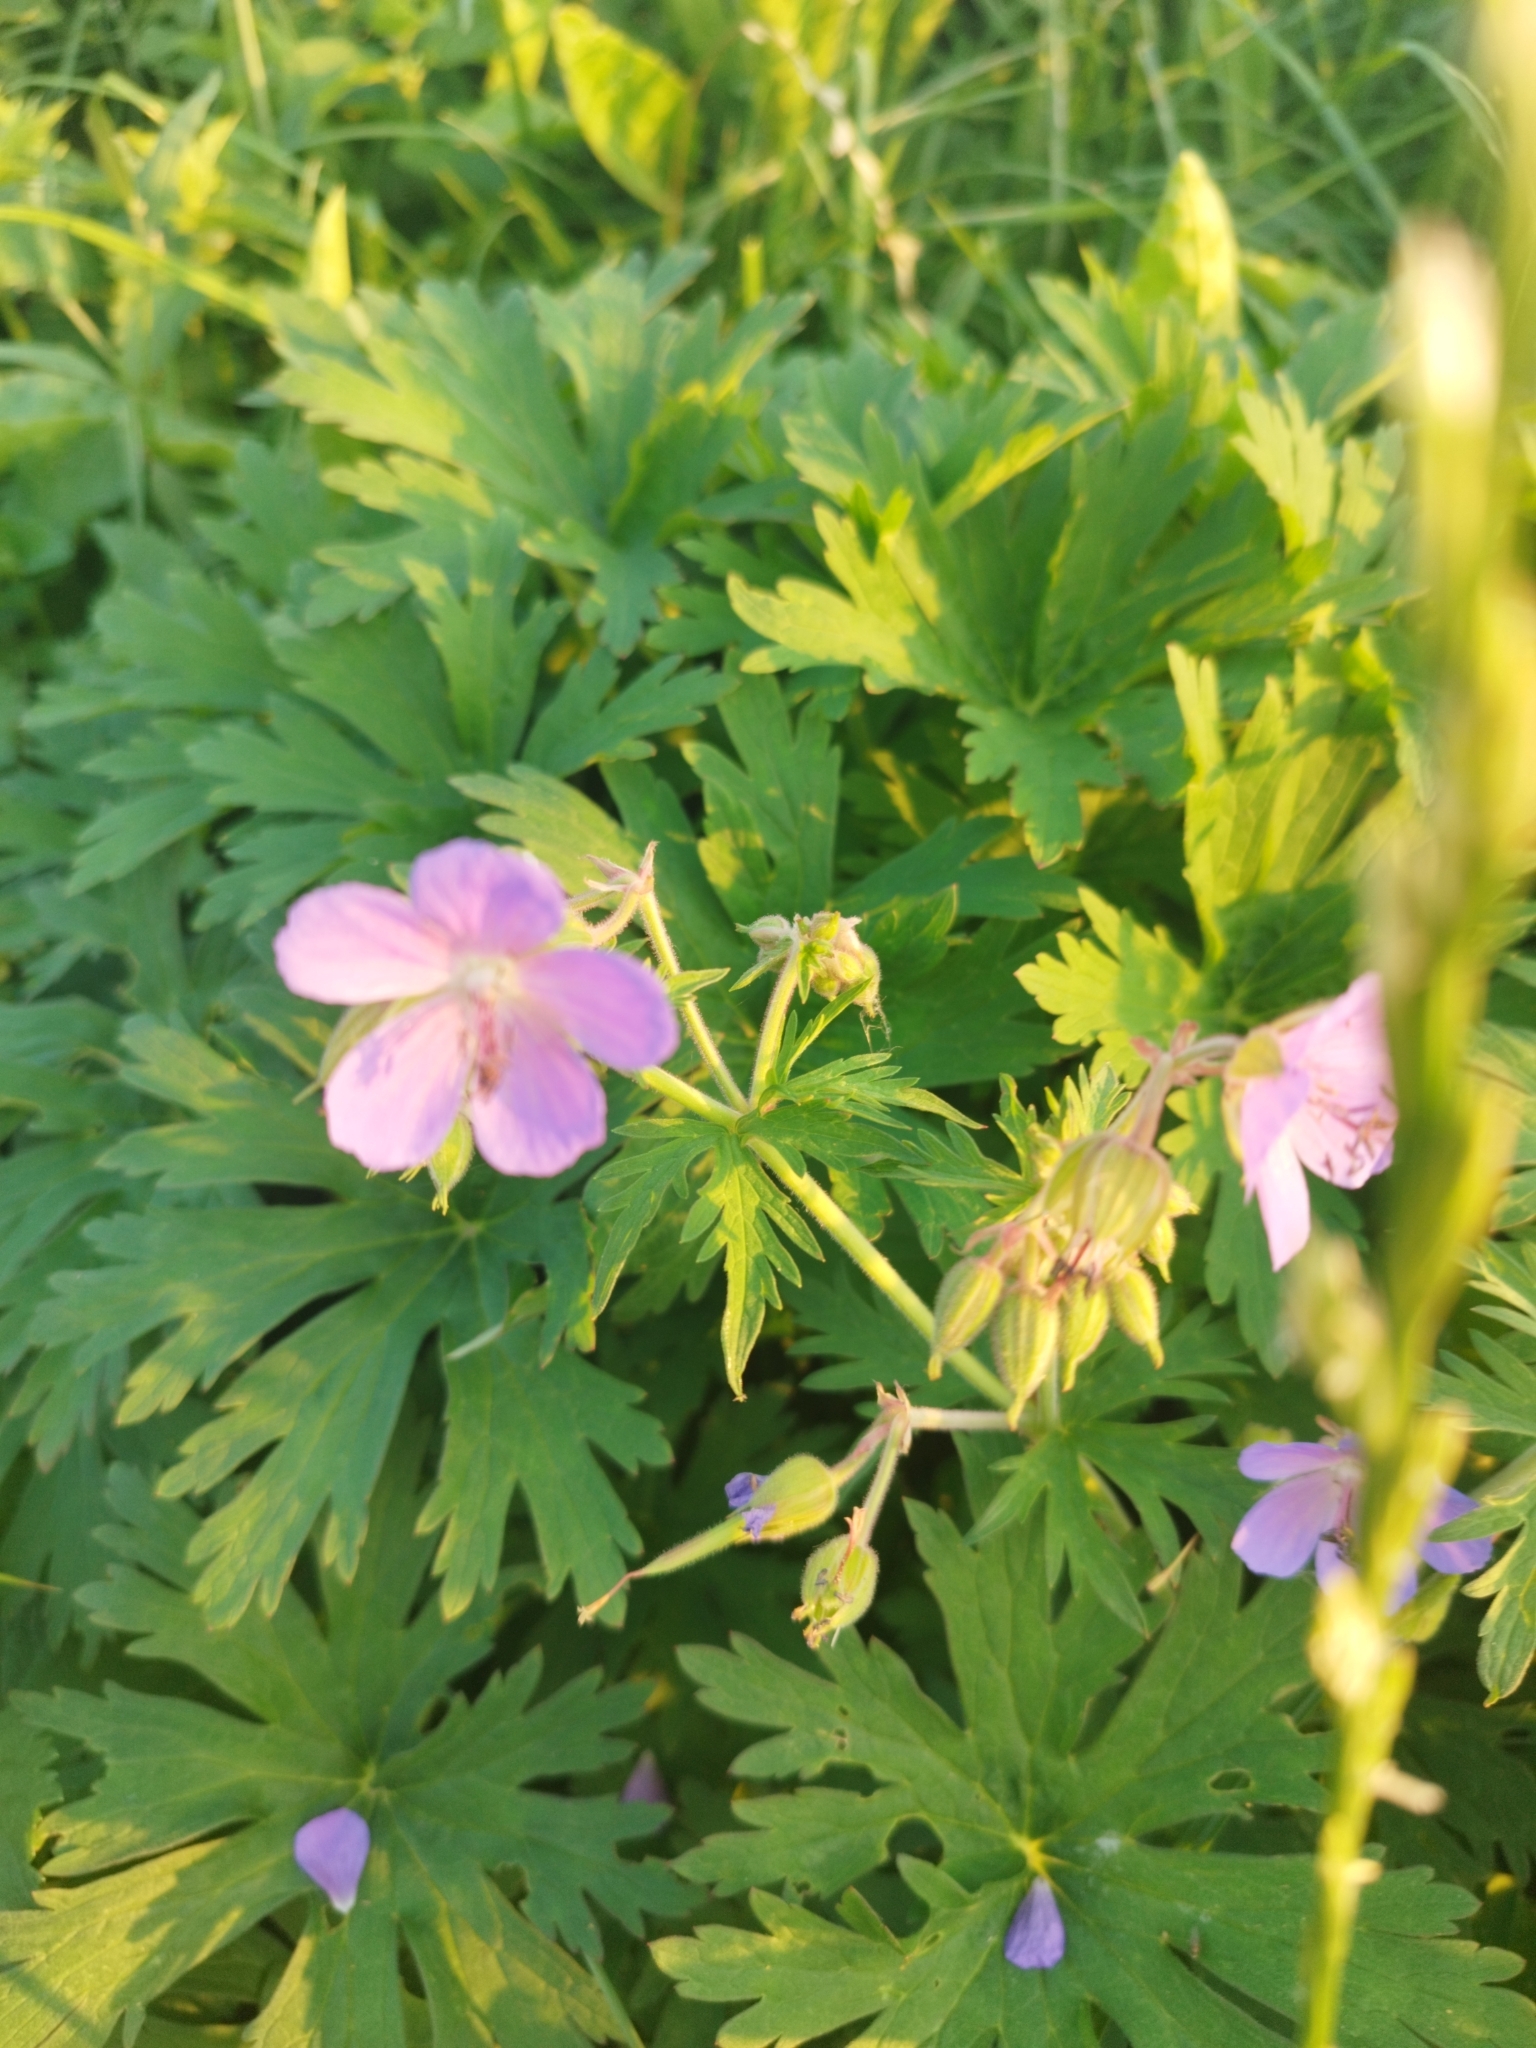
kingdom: Plantae
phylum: Tracheophyta
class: Magnoliopsida
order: Geraniales
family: Geraniaceae
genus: Geranium
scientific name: Geranium pratense
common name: Meadow crane's-bill
